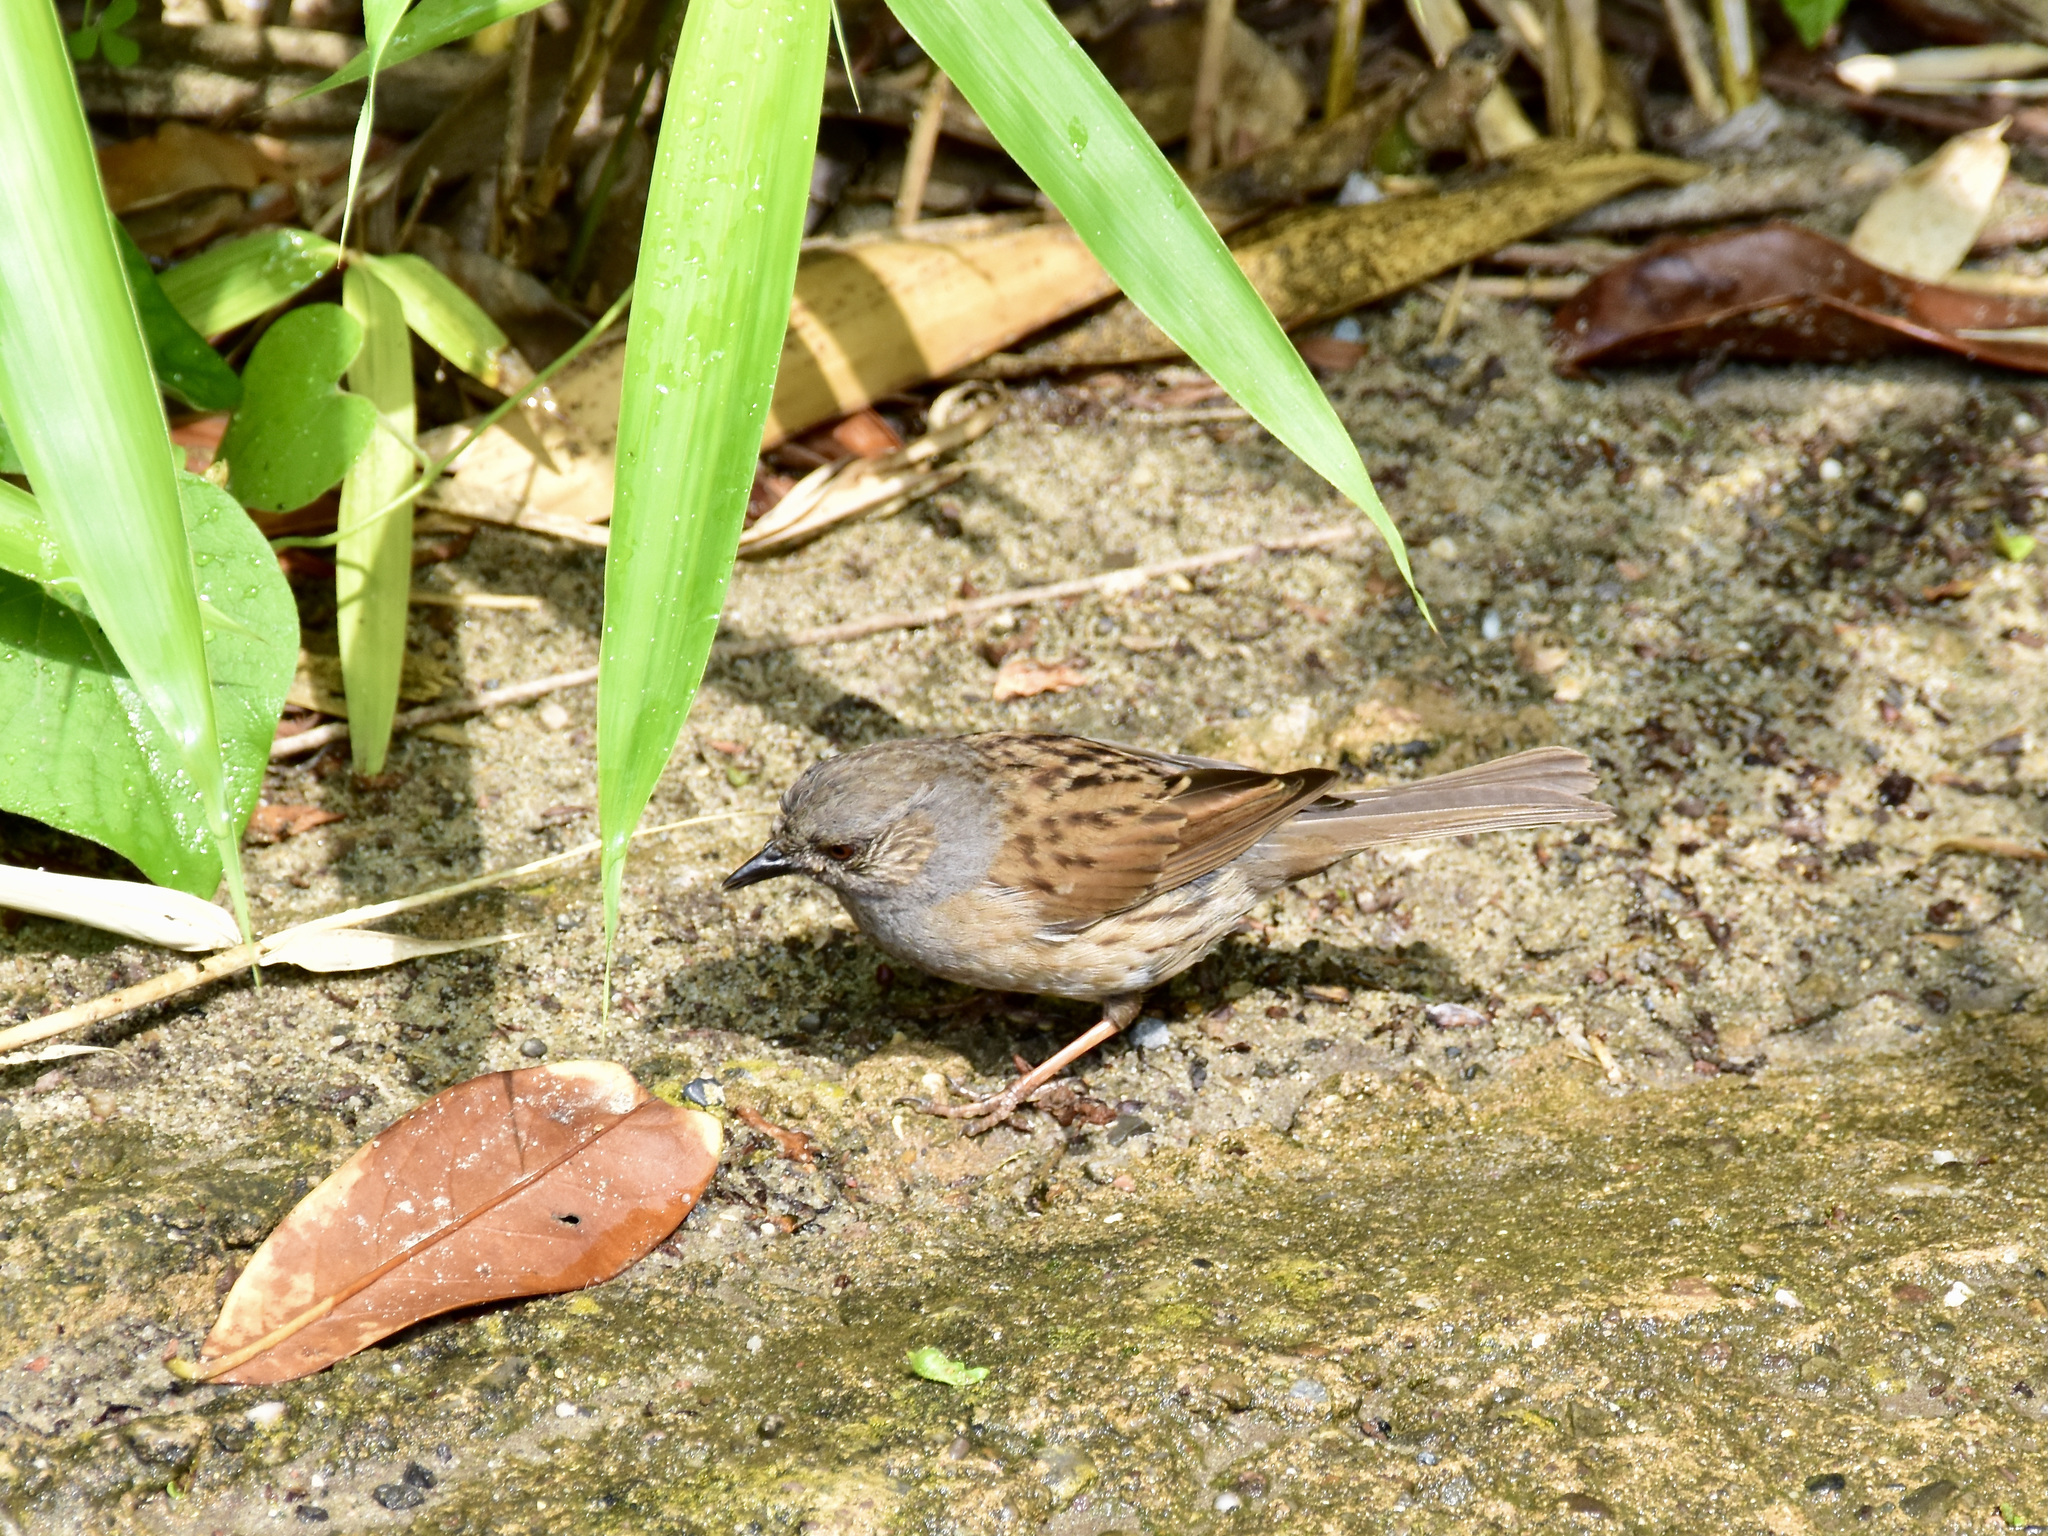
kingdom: Animalia
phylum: Chordata
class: Aves
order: Passeriformes
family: Prunellidae
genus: Prunella
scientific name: Prunella modularis
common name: Dunnock
